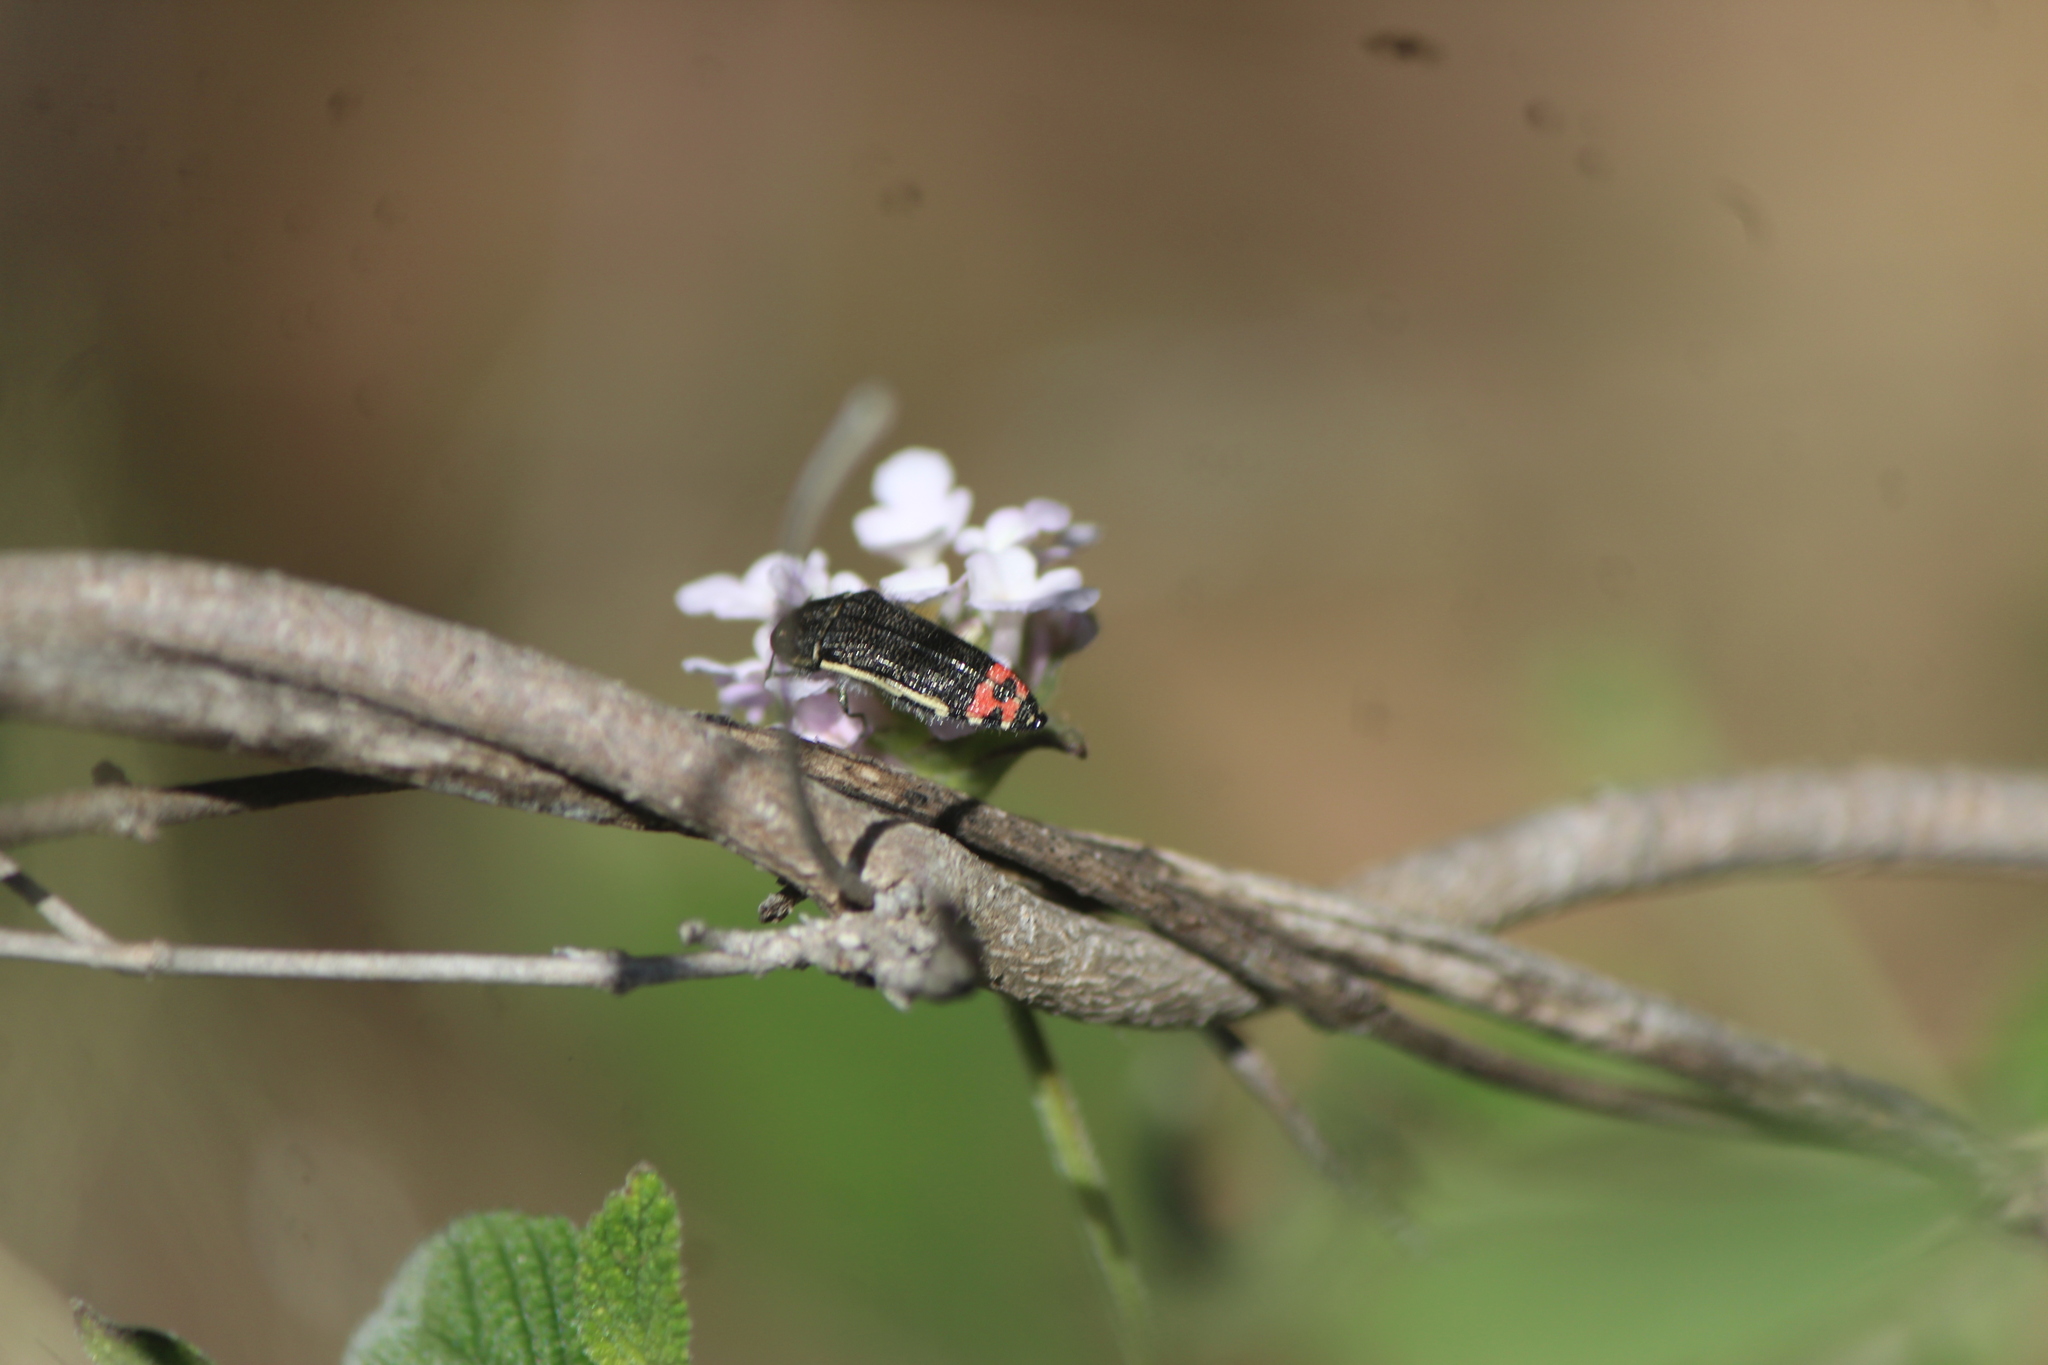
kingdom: Animalia
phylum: Arthropoda
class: Insecta
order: Coleoptera
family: Buprestidae
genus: Acmaeodera
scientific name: Acmaeodera flavomarginata
